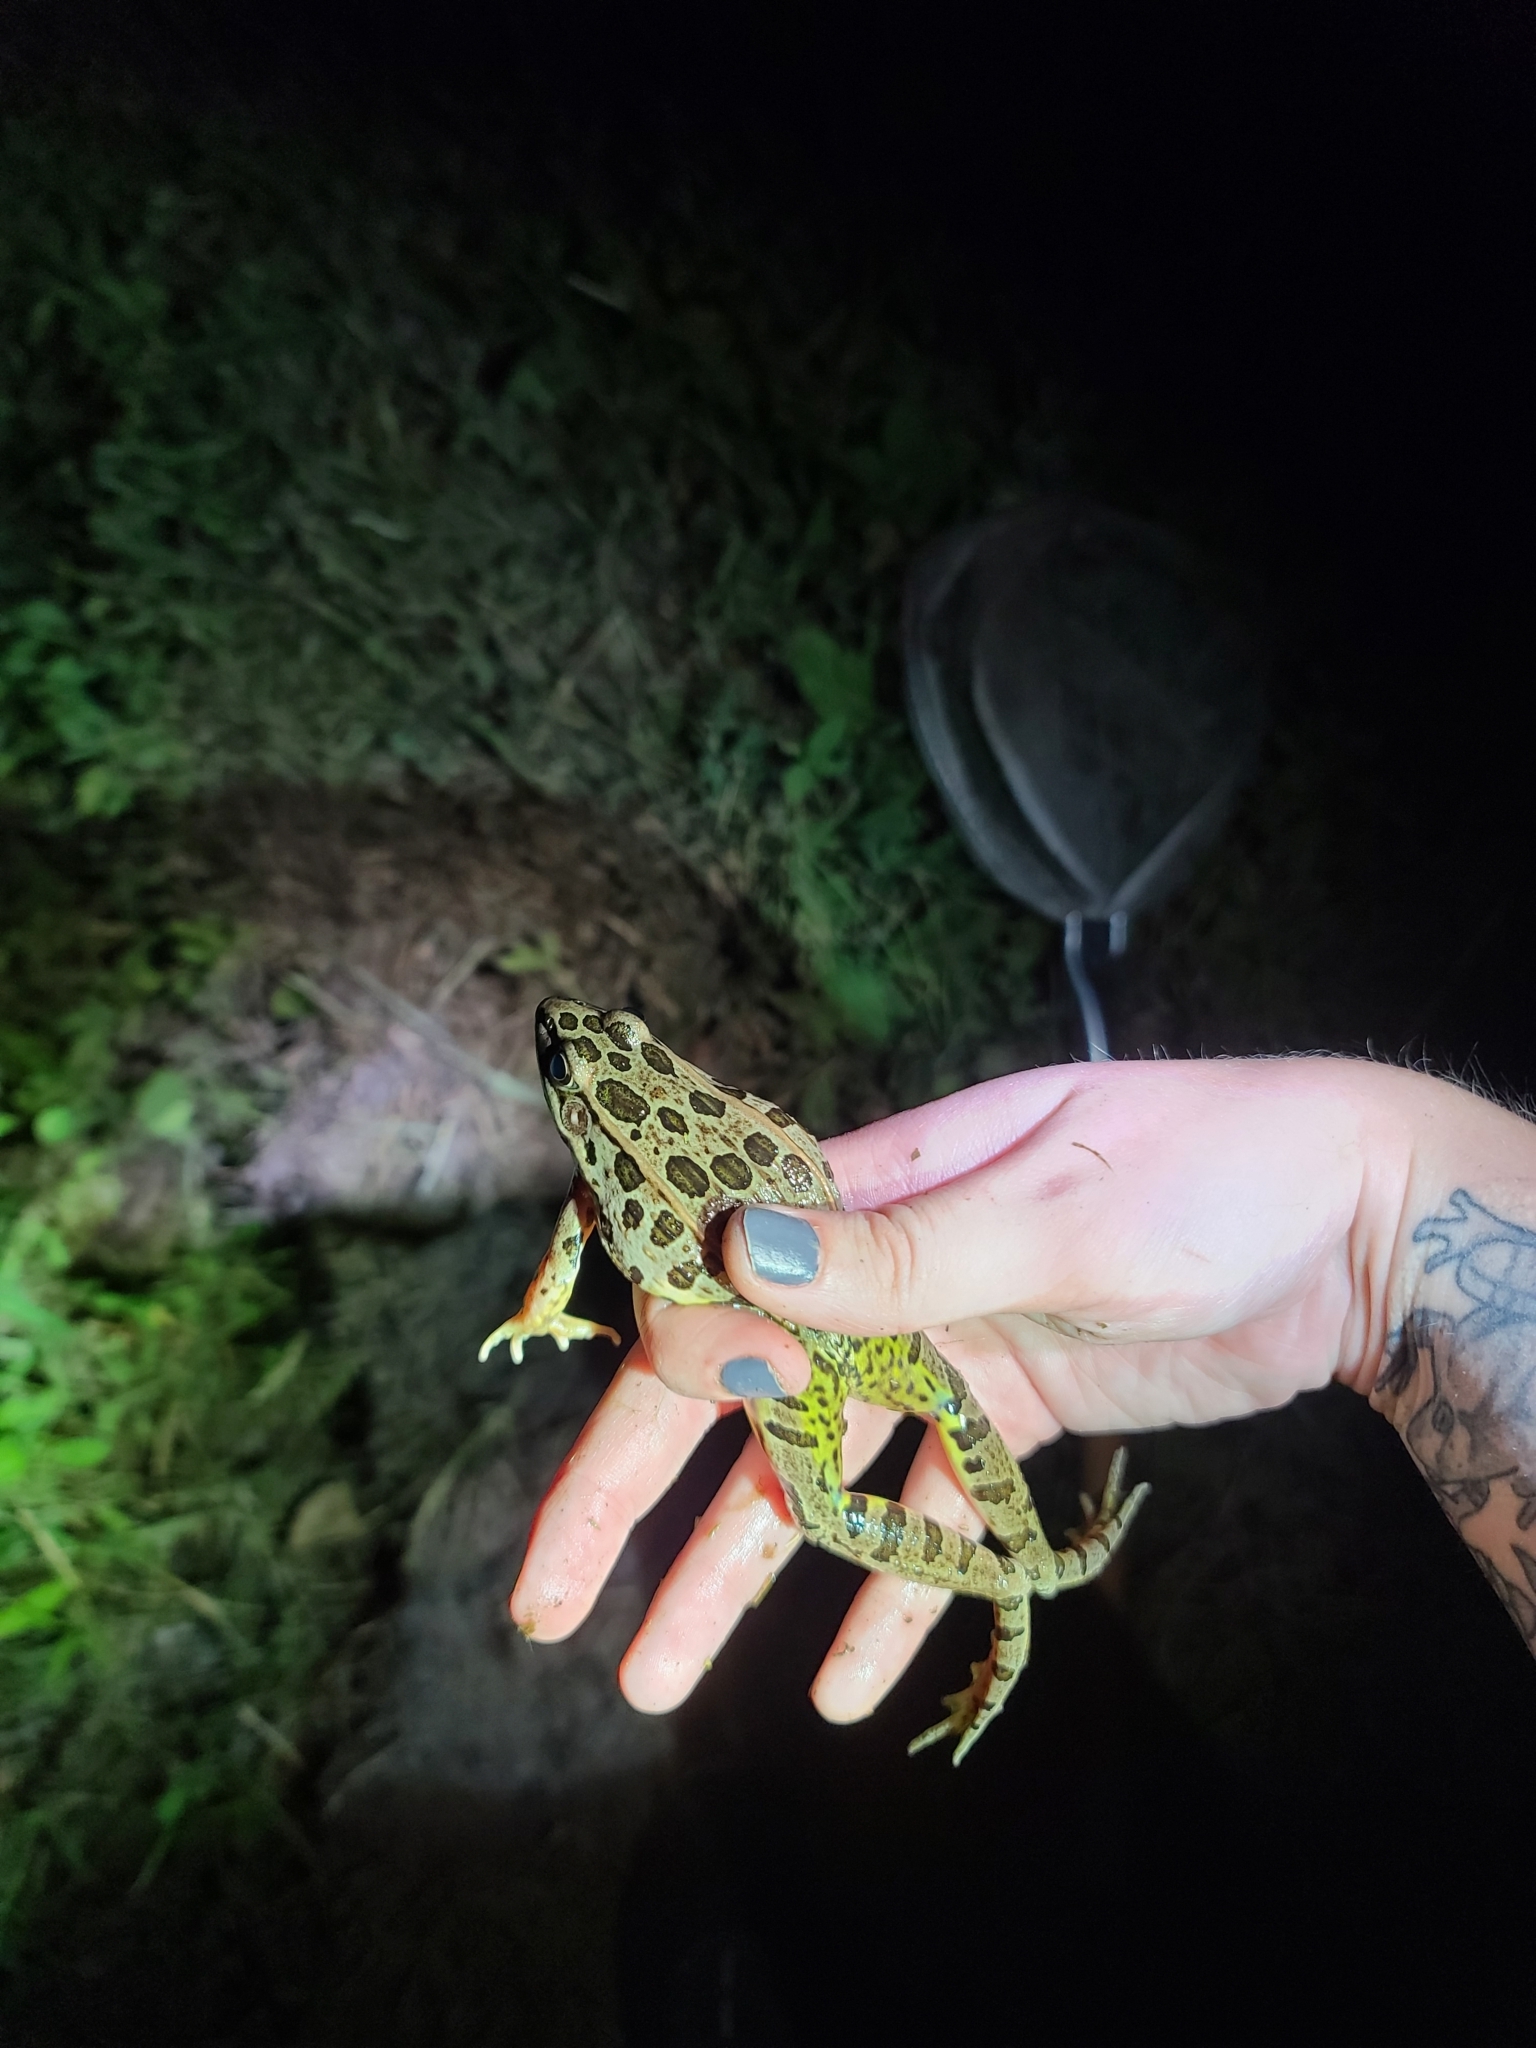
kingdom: Animalia
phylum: Chordata
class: Amphibia
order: Anura
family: Ranidae
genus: Lithobates
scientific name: Lithobates blairi
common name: Plains leopard frog
